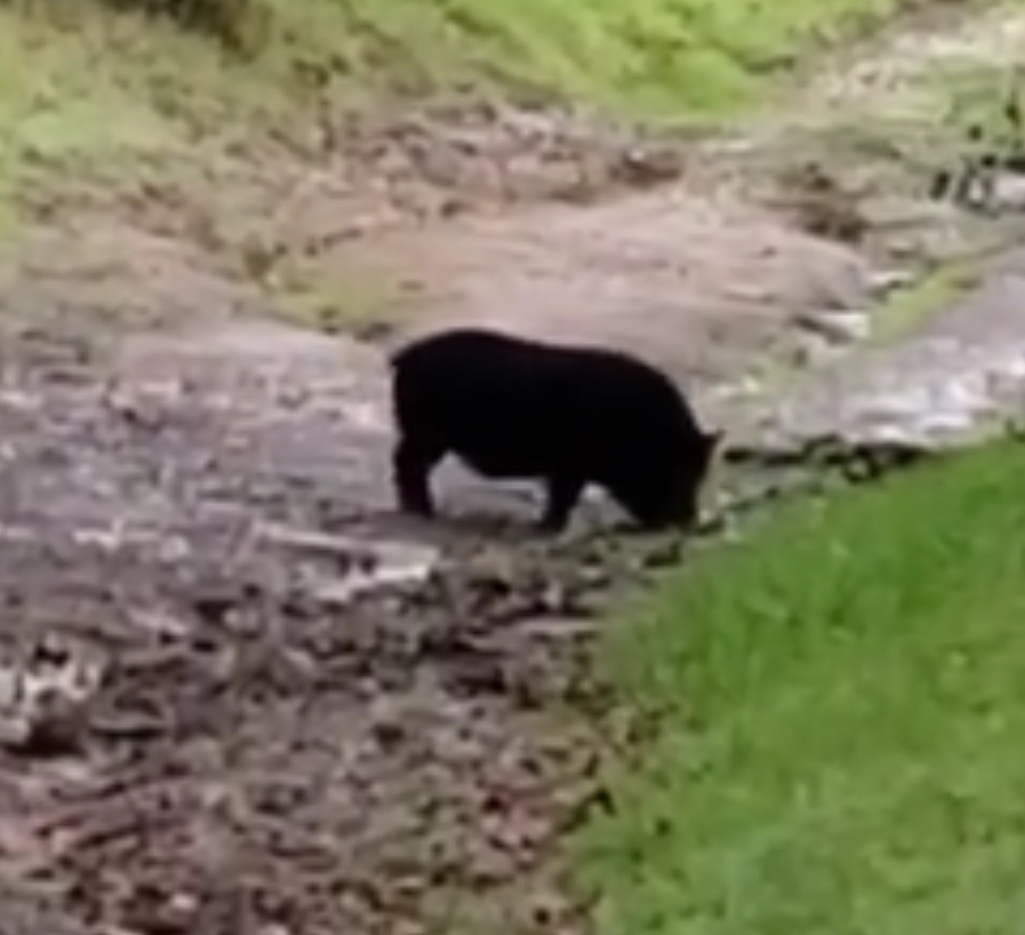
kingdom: Animalia
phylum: Chordata
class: Mammalia
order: Artiodactyla
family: Suidae
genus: Sus
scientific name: Sus scrofa
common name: Wild boar
